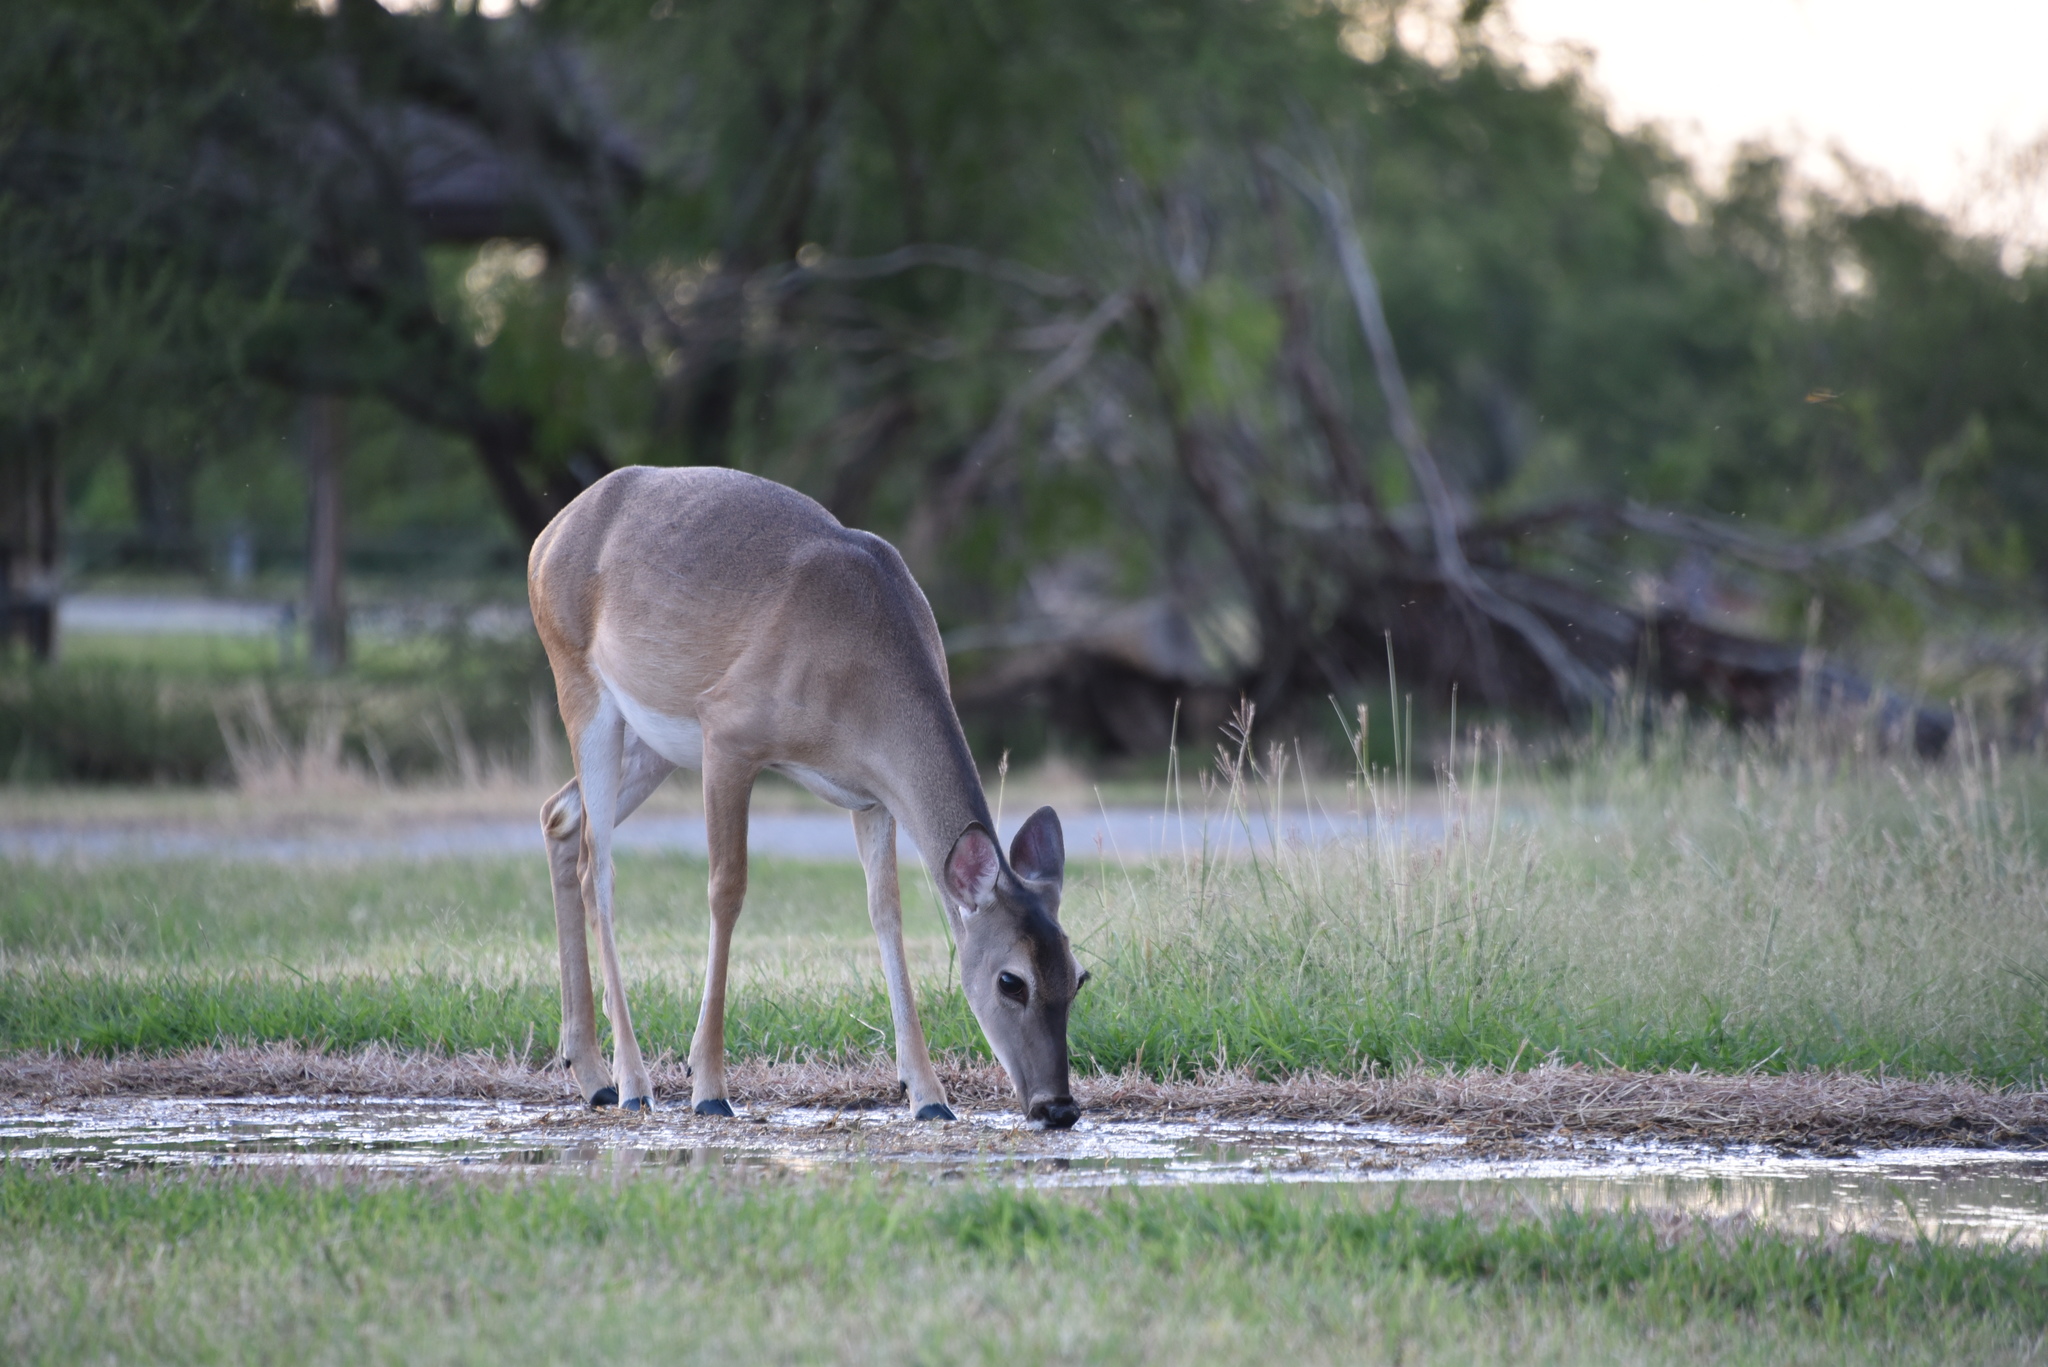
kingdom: Animalia
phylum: Chordata
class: Mammalia
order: Artiodactyla
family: Cervidae
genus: Odocoileus
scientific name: Odocoileus virginianus
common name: White-tailed deer
